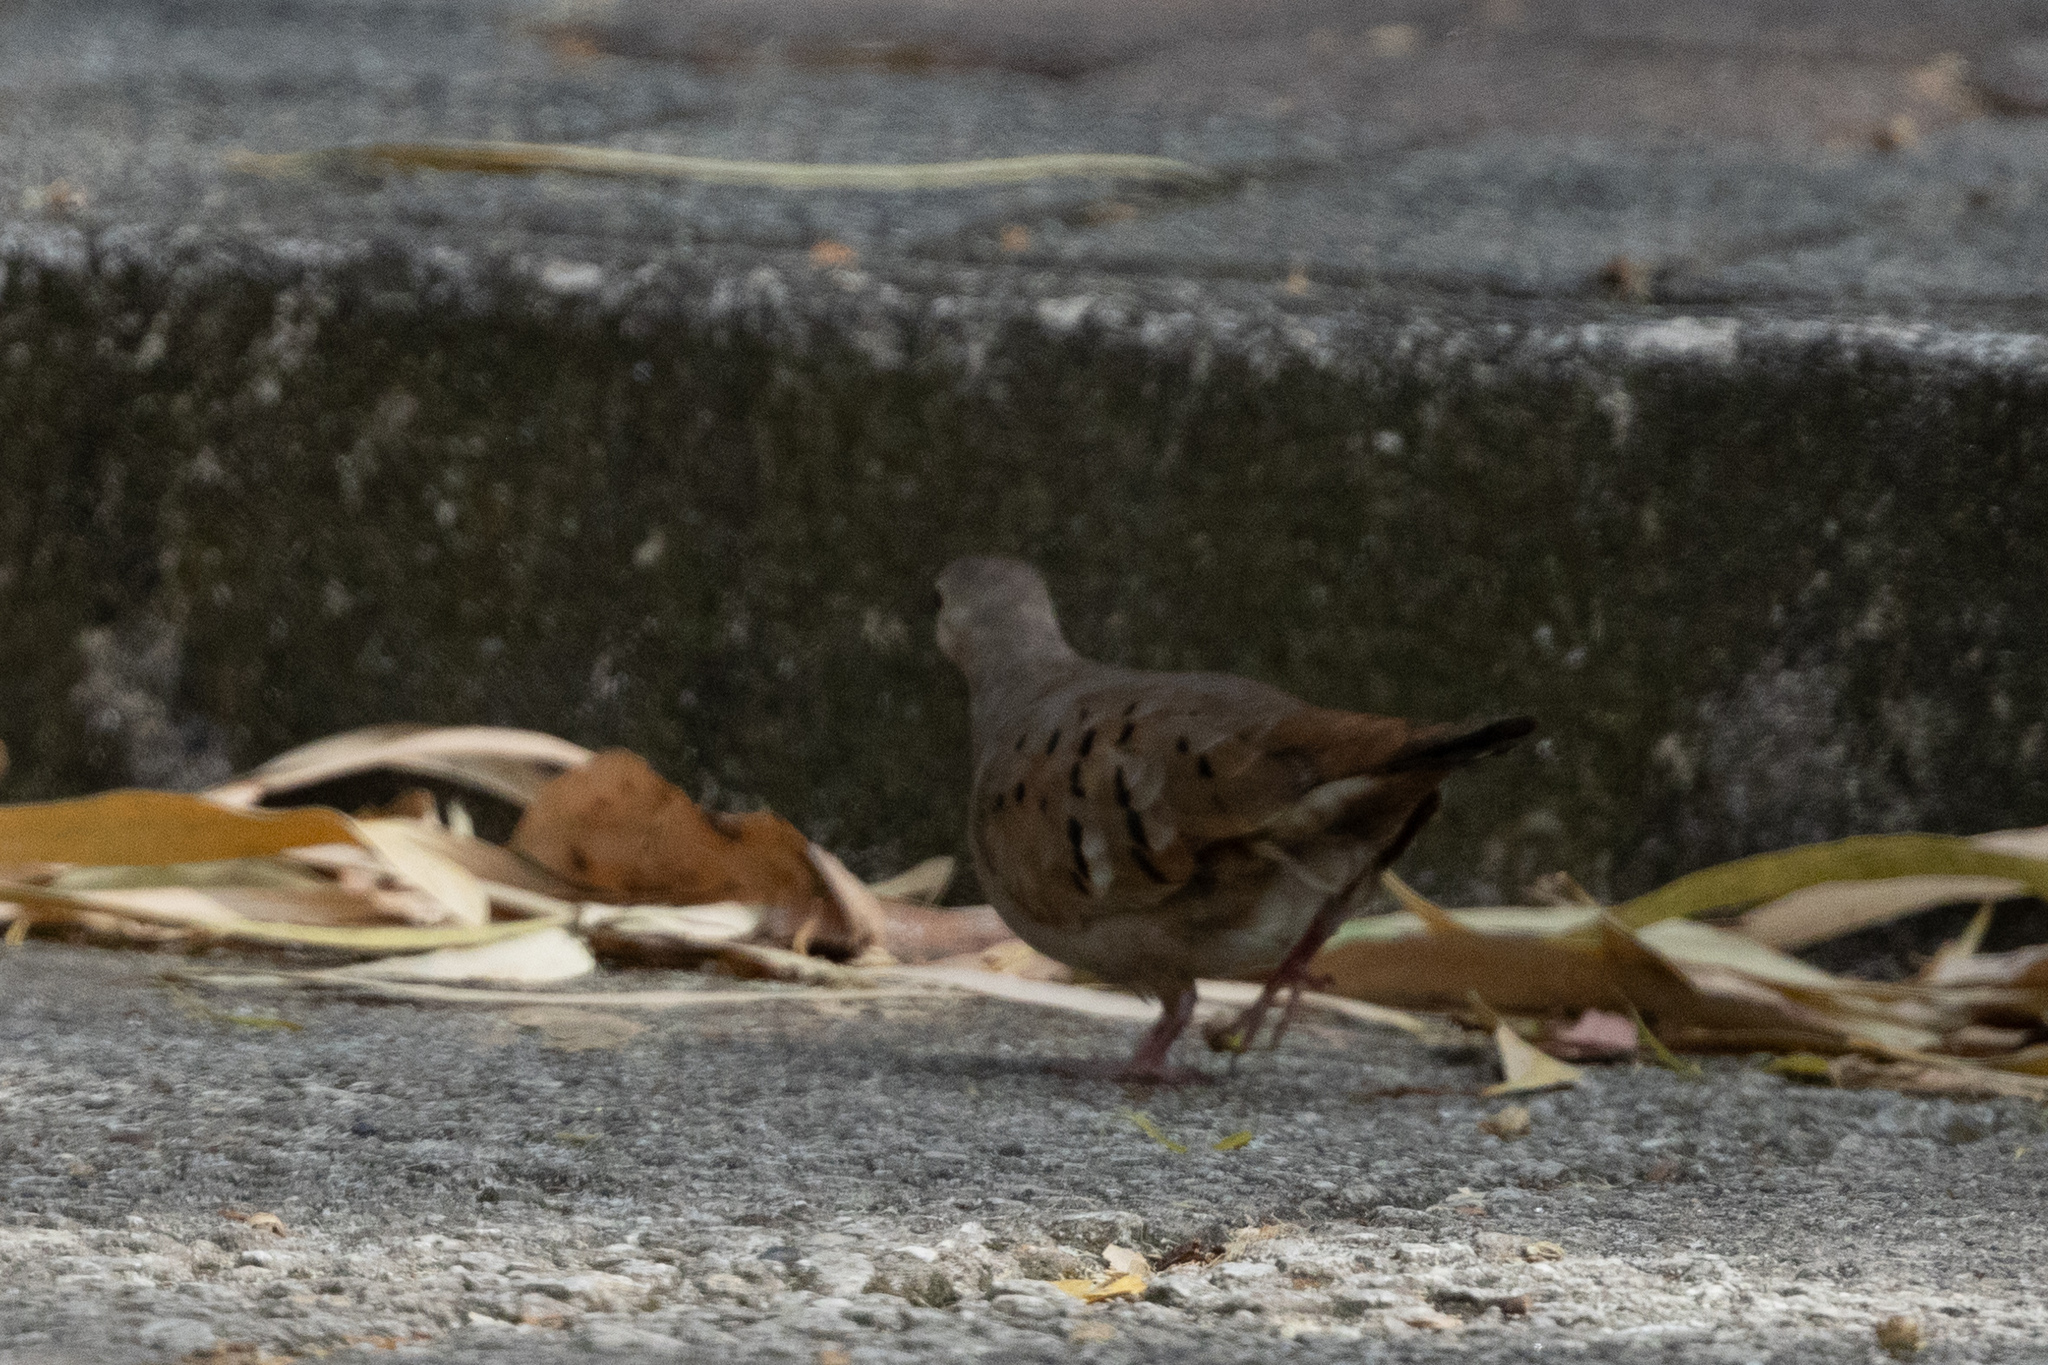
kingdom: Animalia
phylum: Chordata
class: Aves
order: Columbiformes
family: Columbidae
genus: Columbina
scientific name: Columbina talpacoti
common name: Ruddy ground dove
